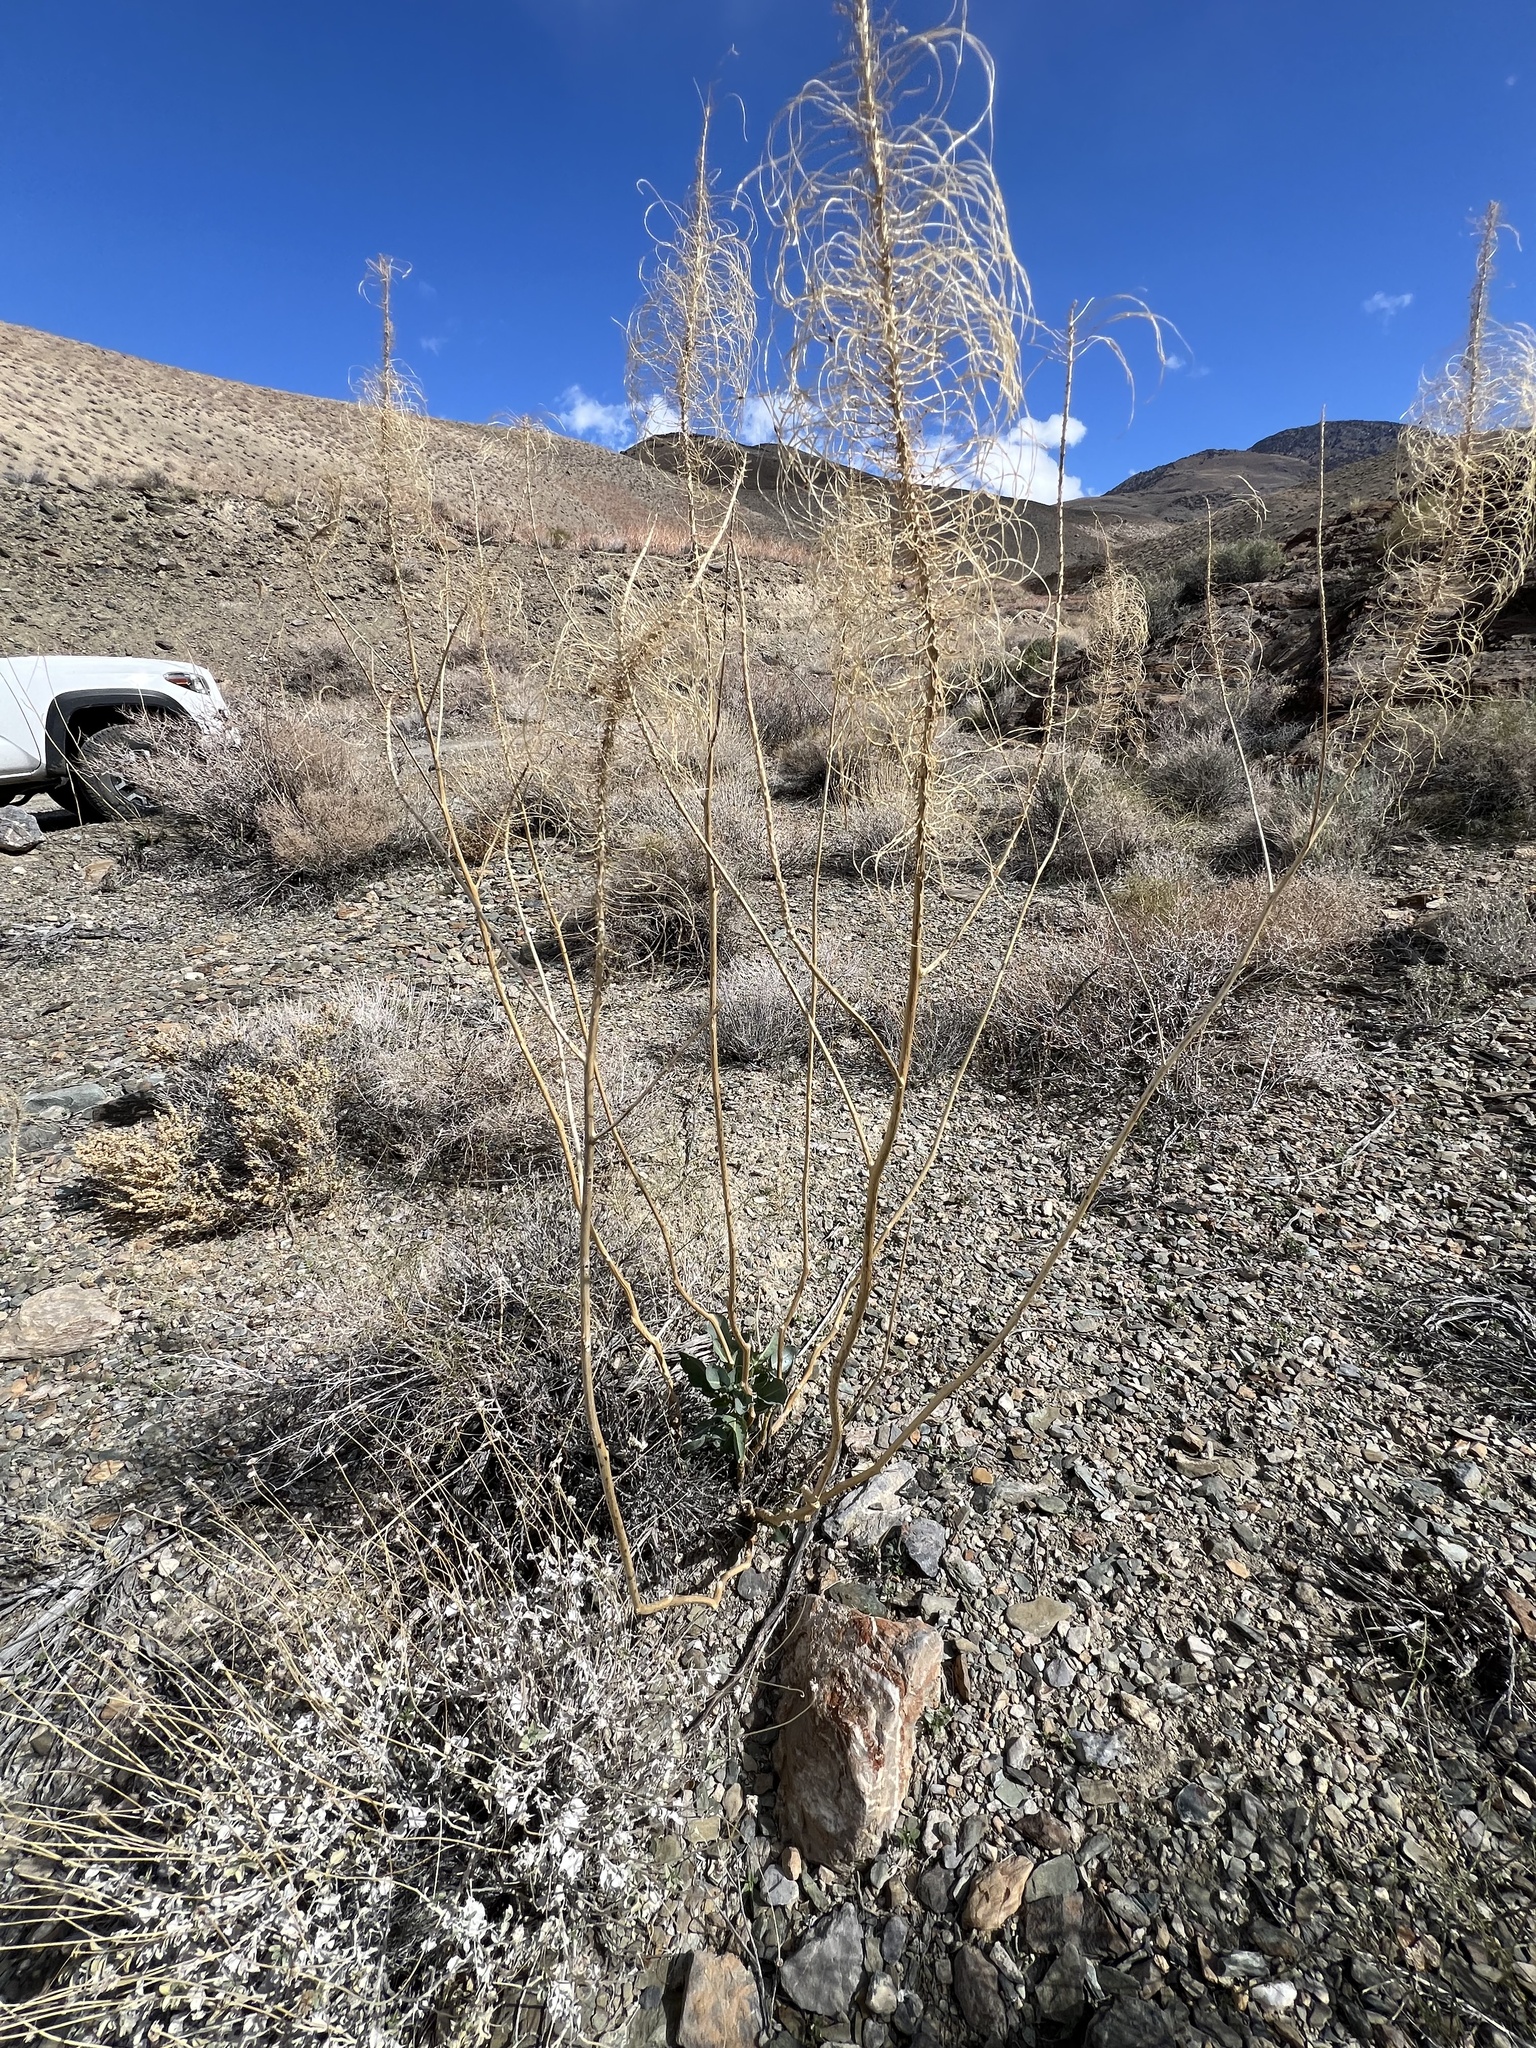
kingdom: Plantae
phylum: Tracheophyta
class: Magnoliopsida
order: Brassicales
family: Brassicaceae
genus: Stanleya
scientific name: Stanleya elata
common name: Panamint prince's plume
